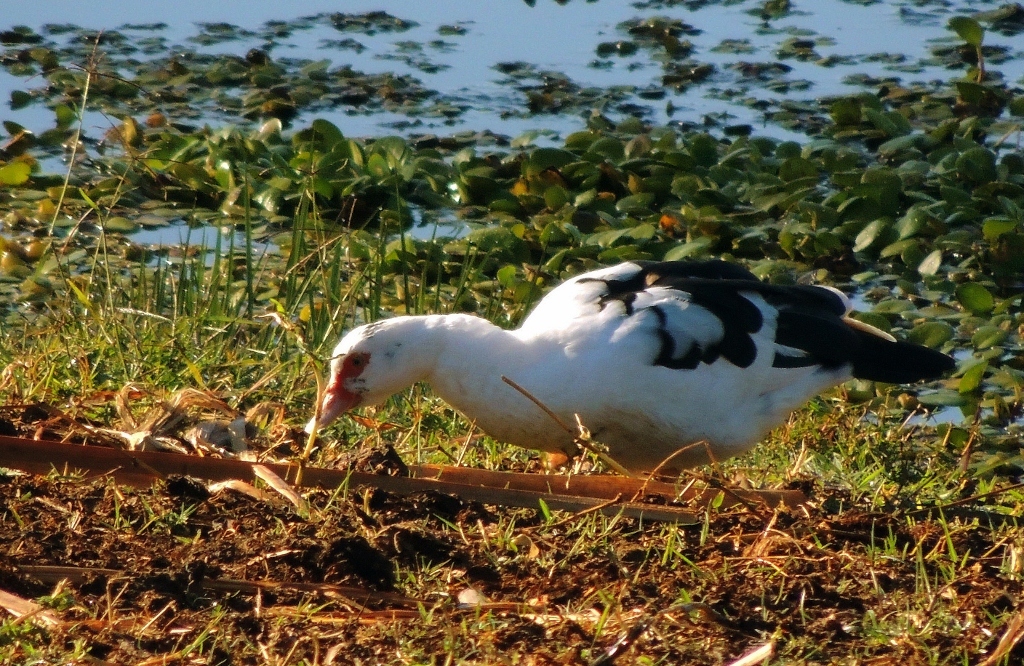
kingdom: Animalia
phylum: Chordata
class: Aves
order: Anseriformes
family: Anatidae
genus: Cairina
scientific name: Cairina moschata
